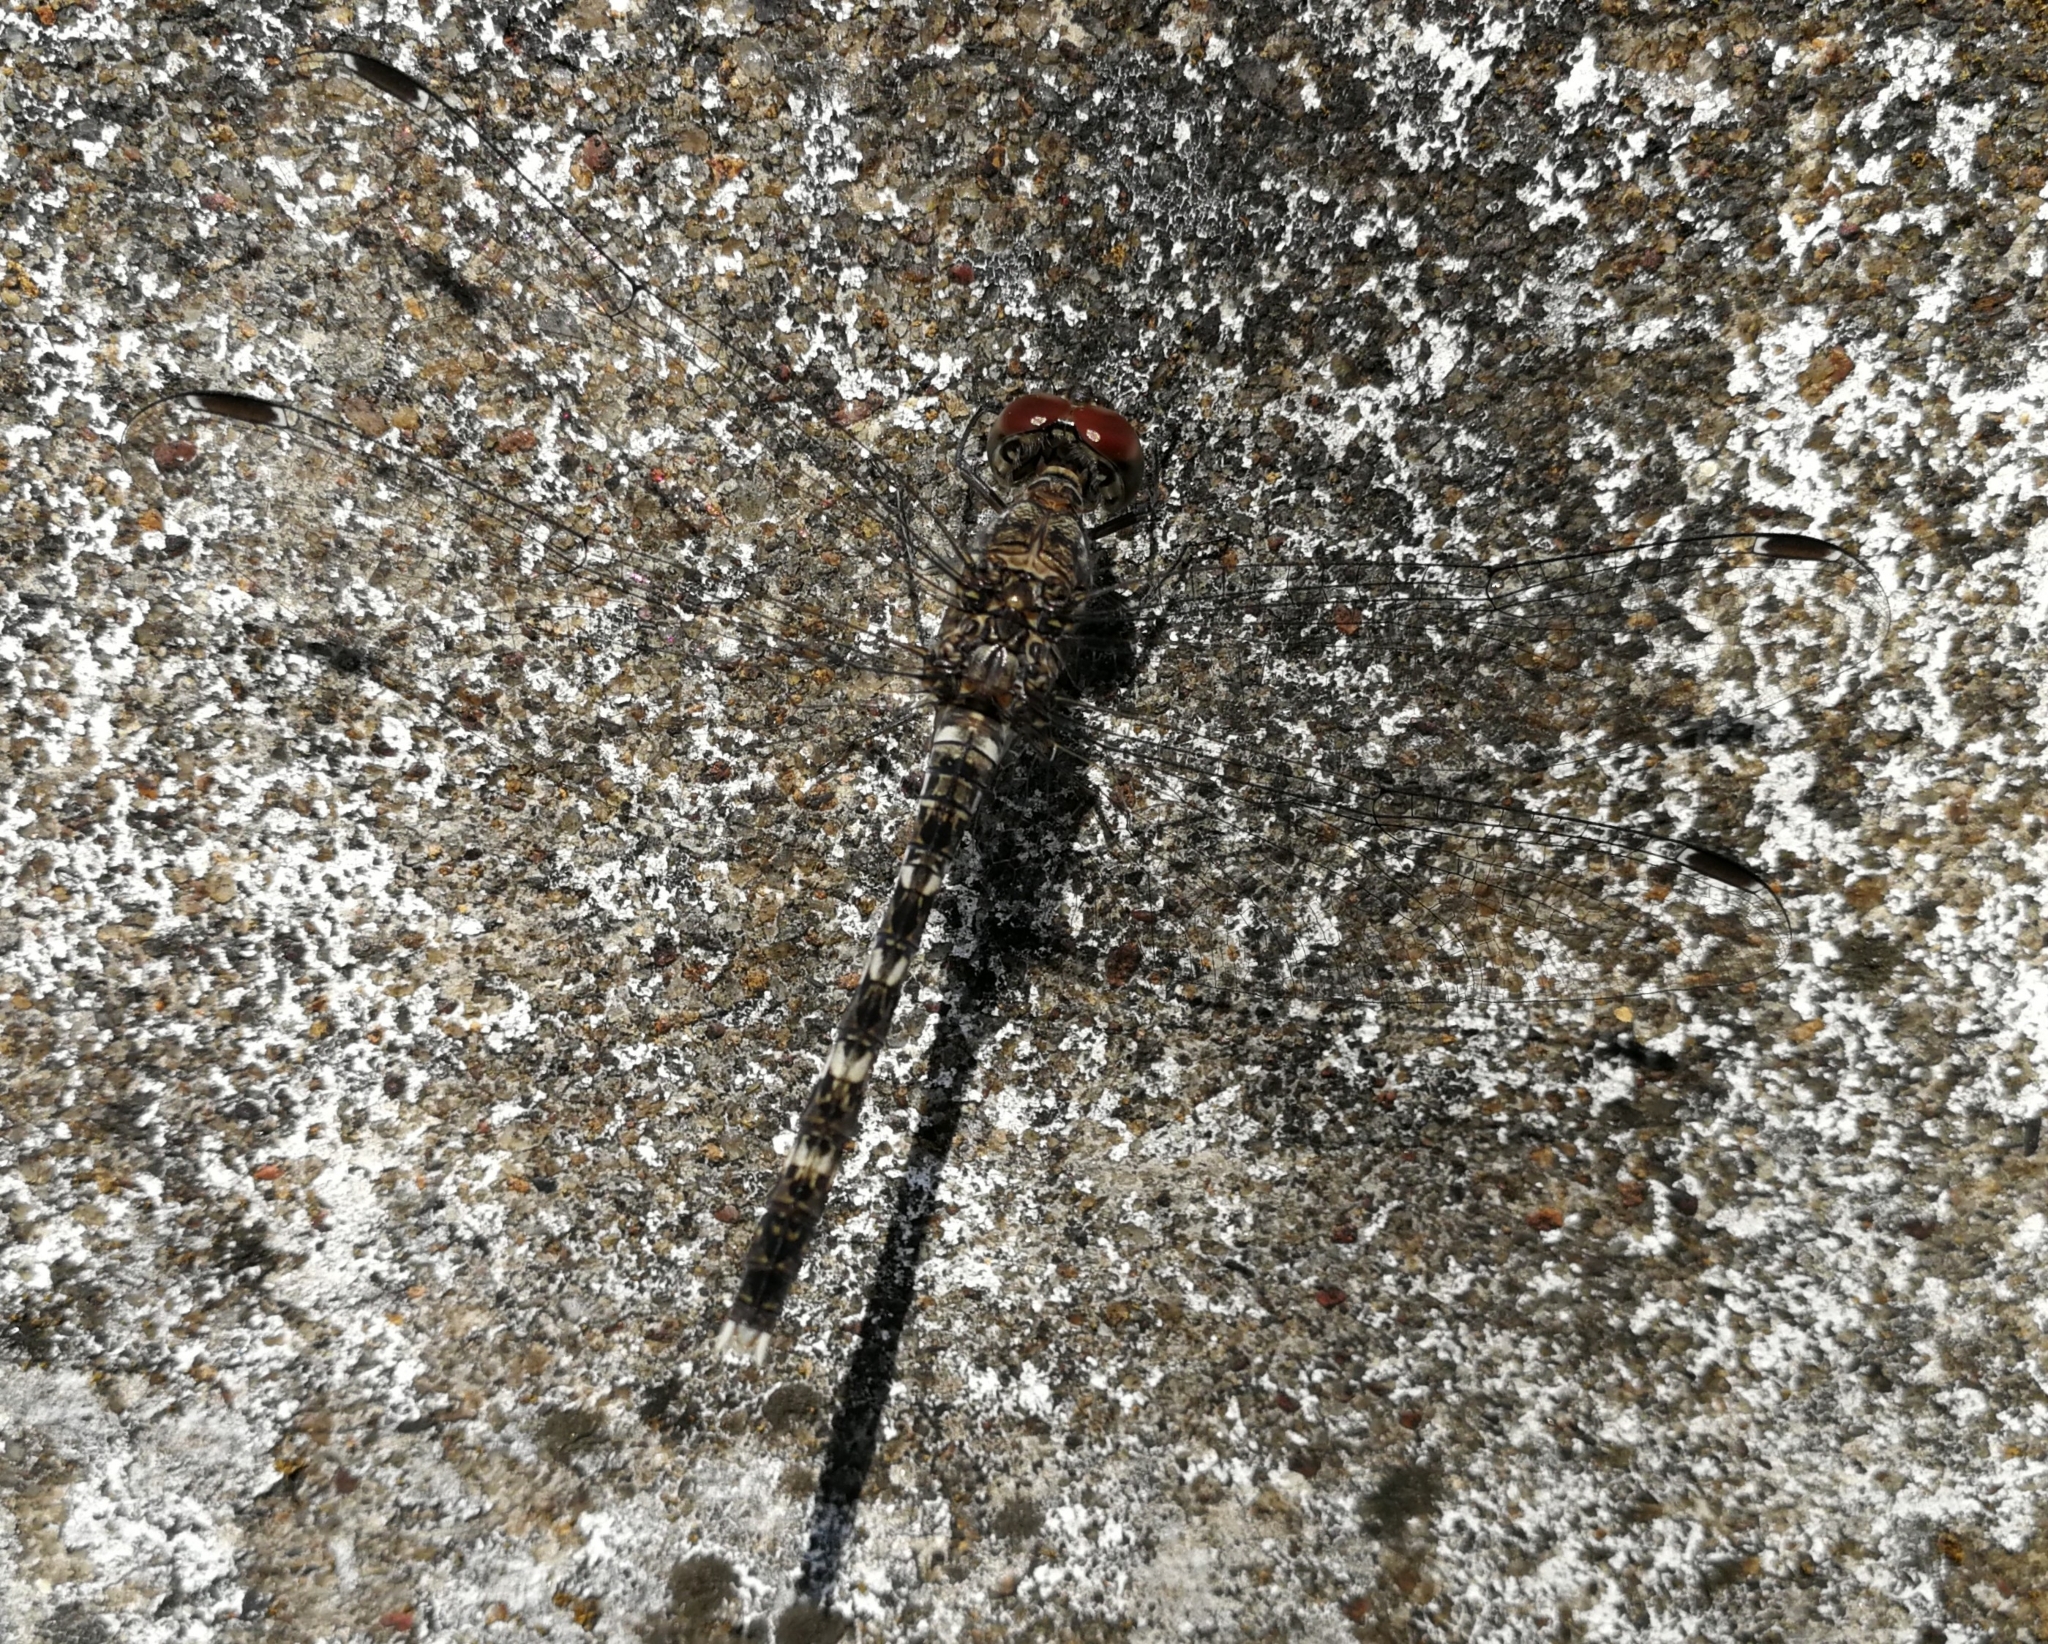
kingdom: Animalia
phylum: Arthropoda
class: Insecta
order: Odonata
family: Libellulidae
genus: Bradinopyga
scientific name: Bradinopyga geminata
